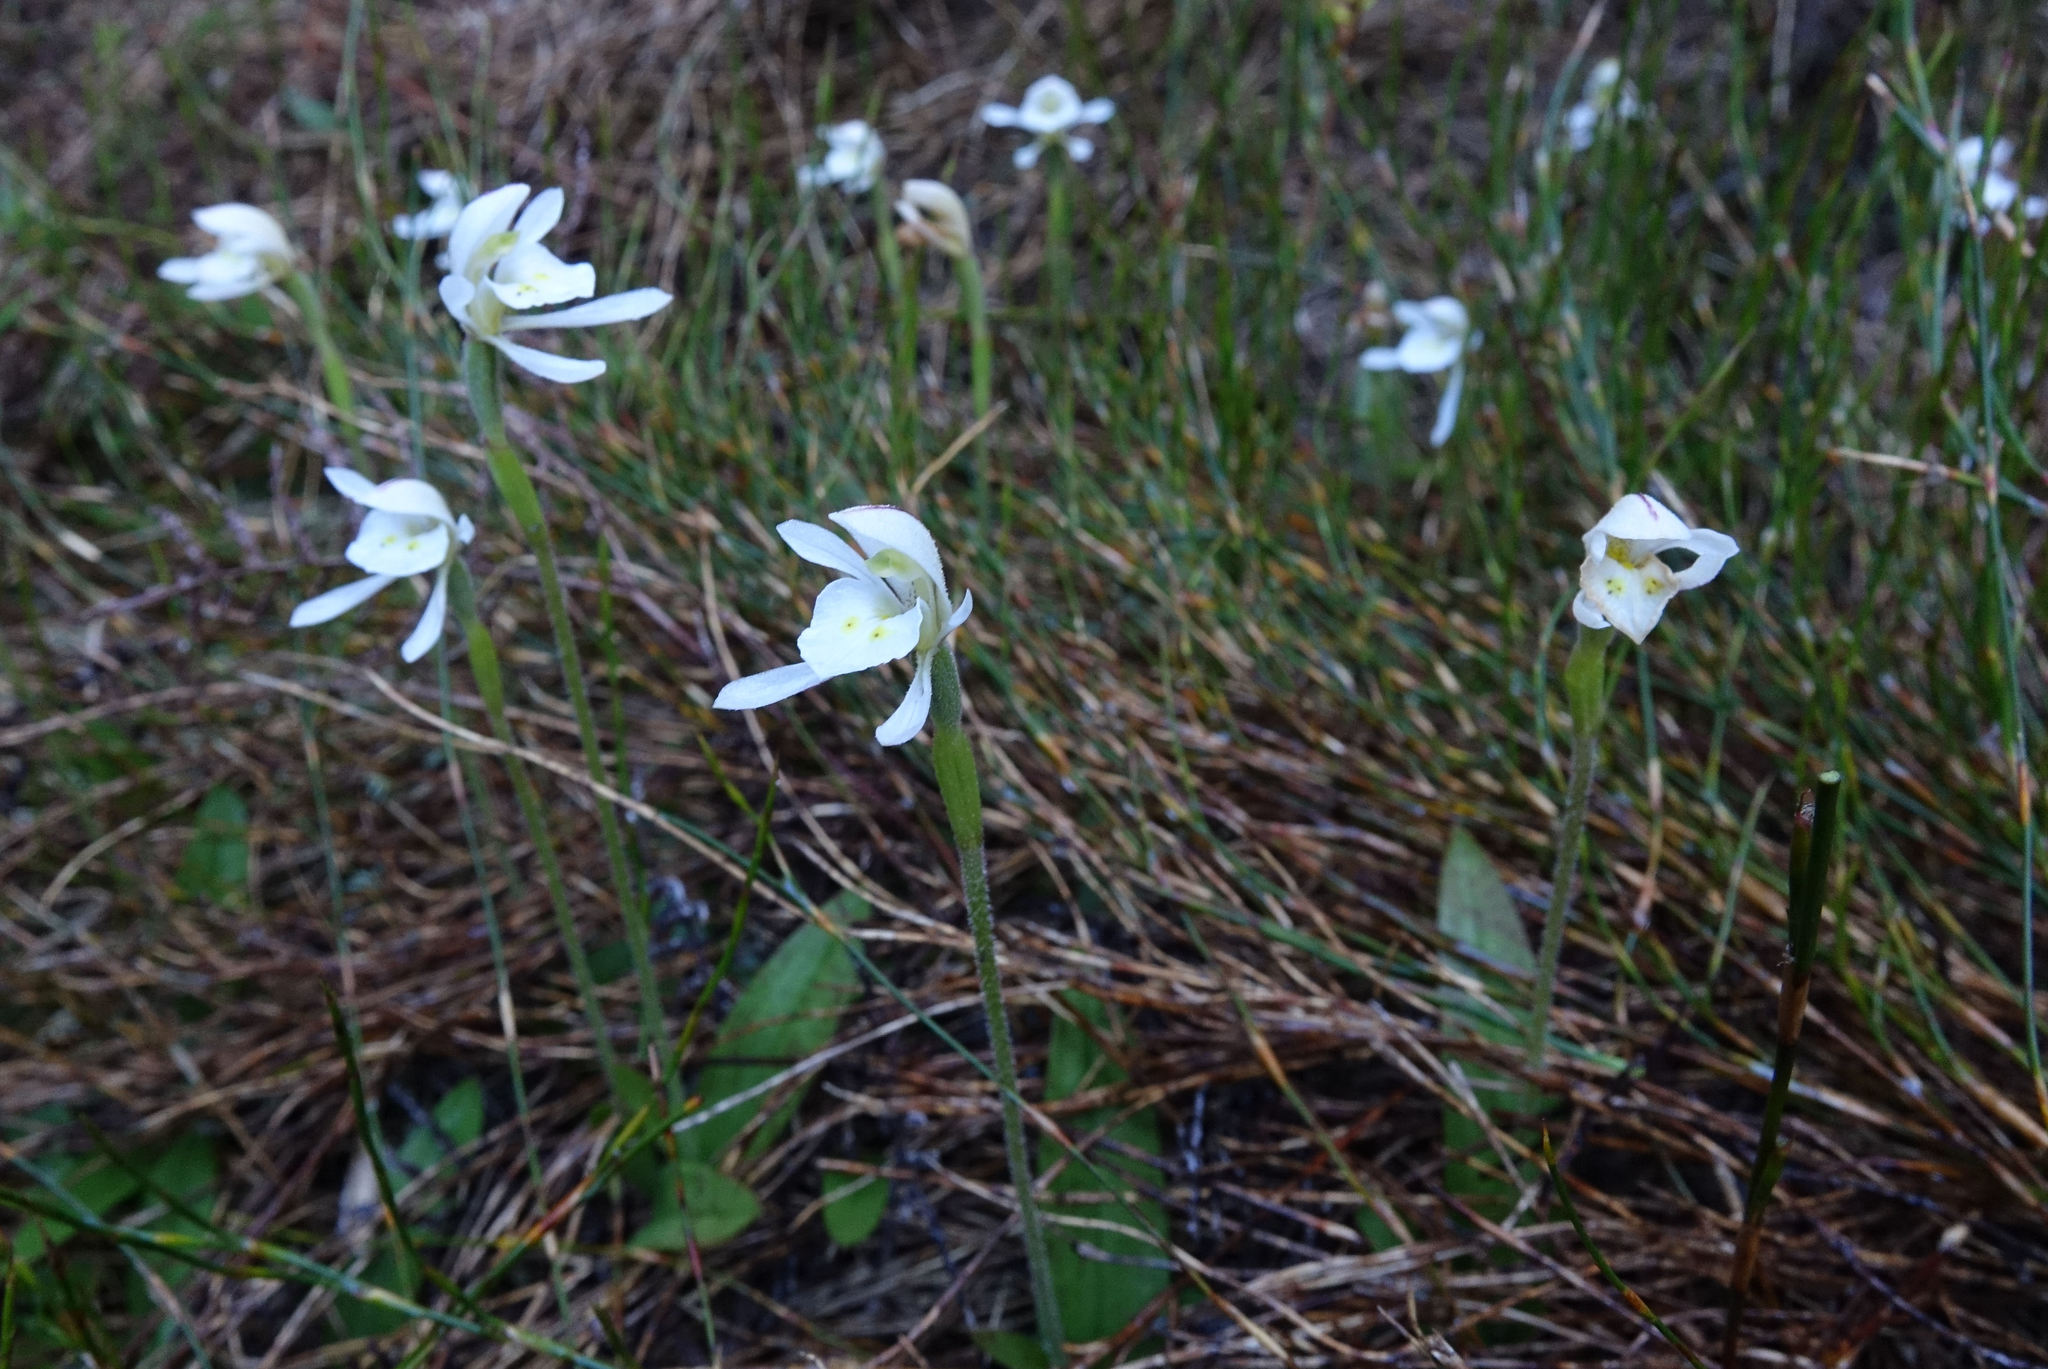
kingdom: Plantae
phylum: Tracheophyta
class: Liliopsida
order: Asparagales
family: Orchidaceae
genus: Aporostylis
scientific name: Aporostylis bifolia
